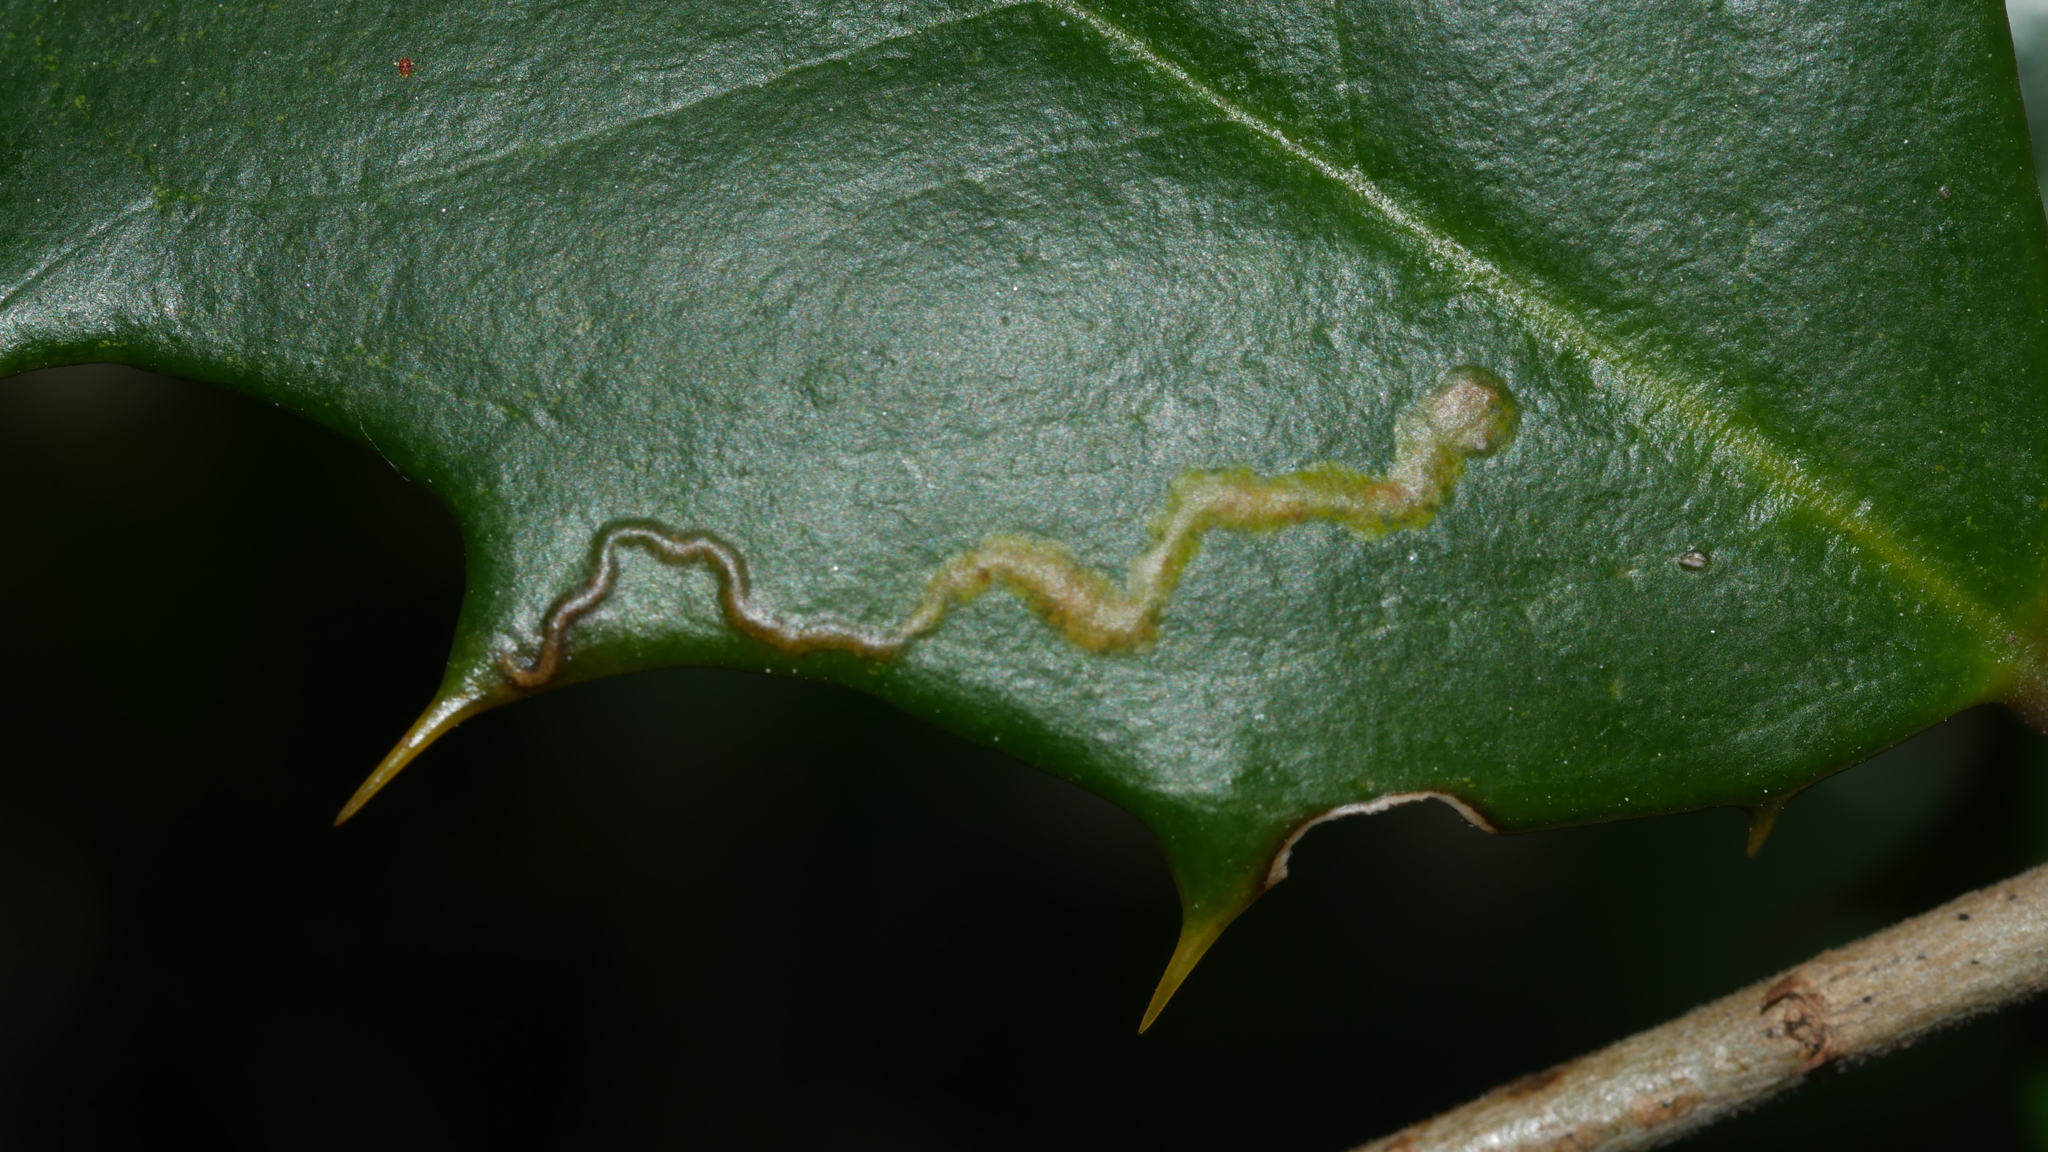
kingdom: Animalia
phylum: Arthropoda
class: Insecta
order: Diptera
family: Agromyzidae
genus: Phytomyza
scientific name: Phytomyza ilicicola
